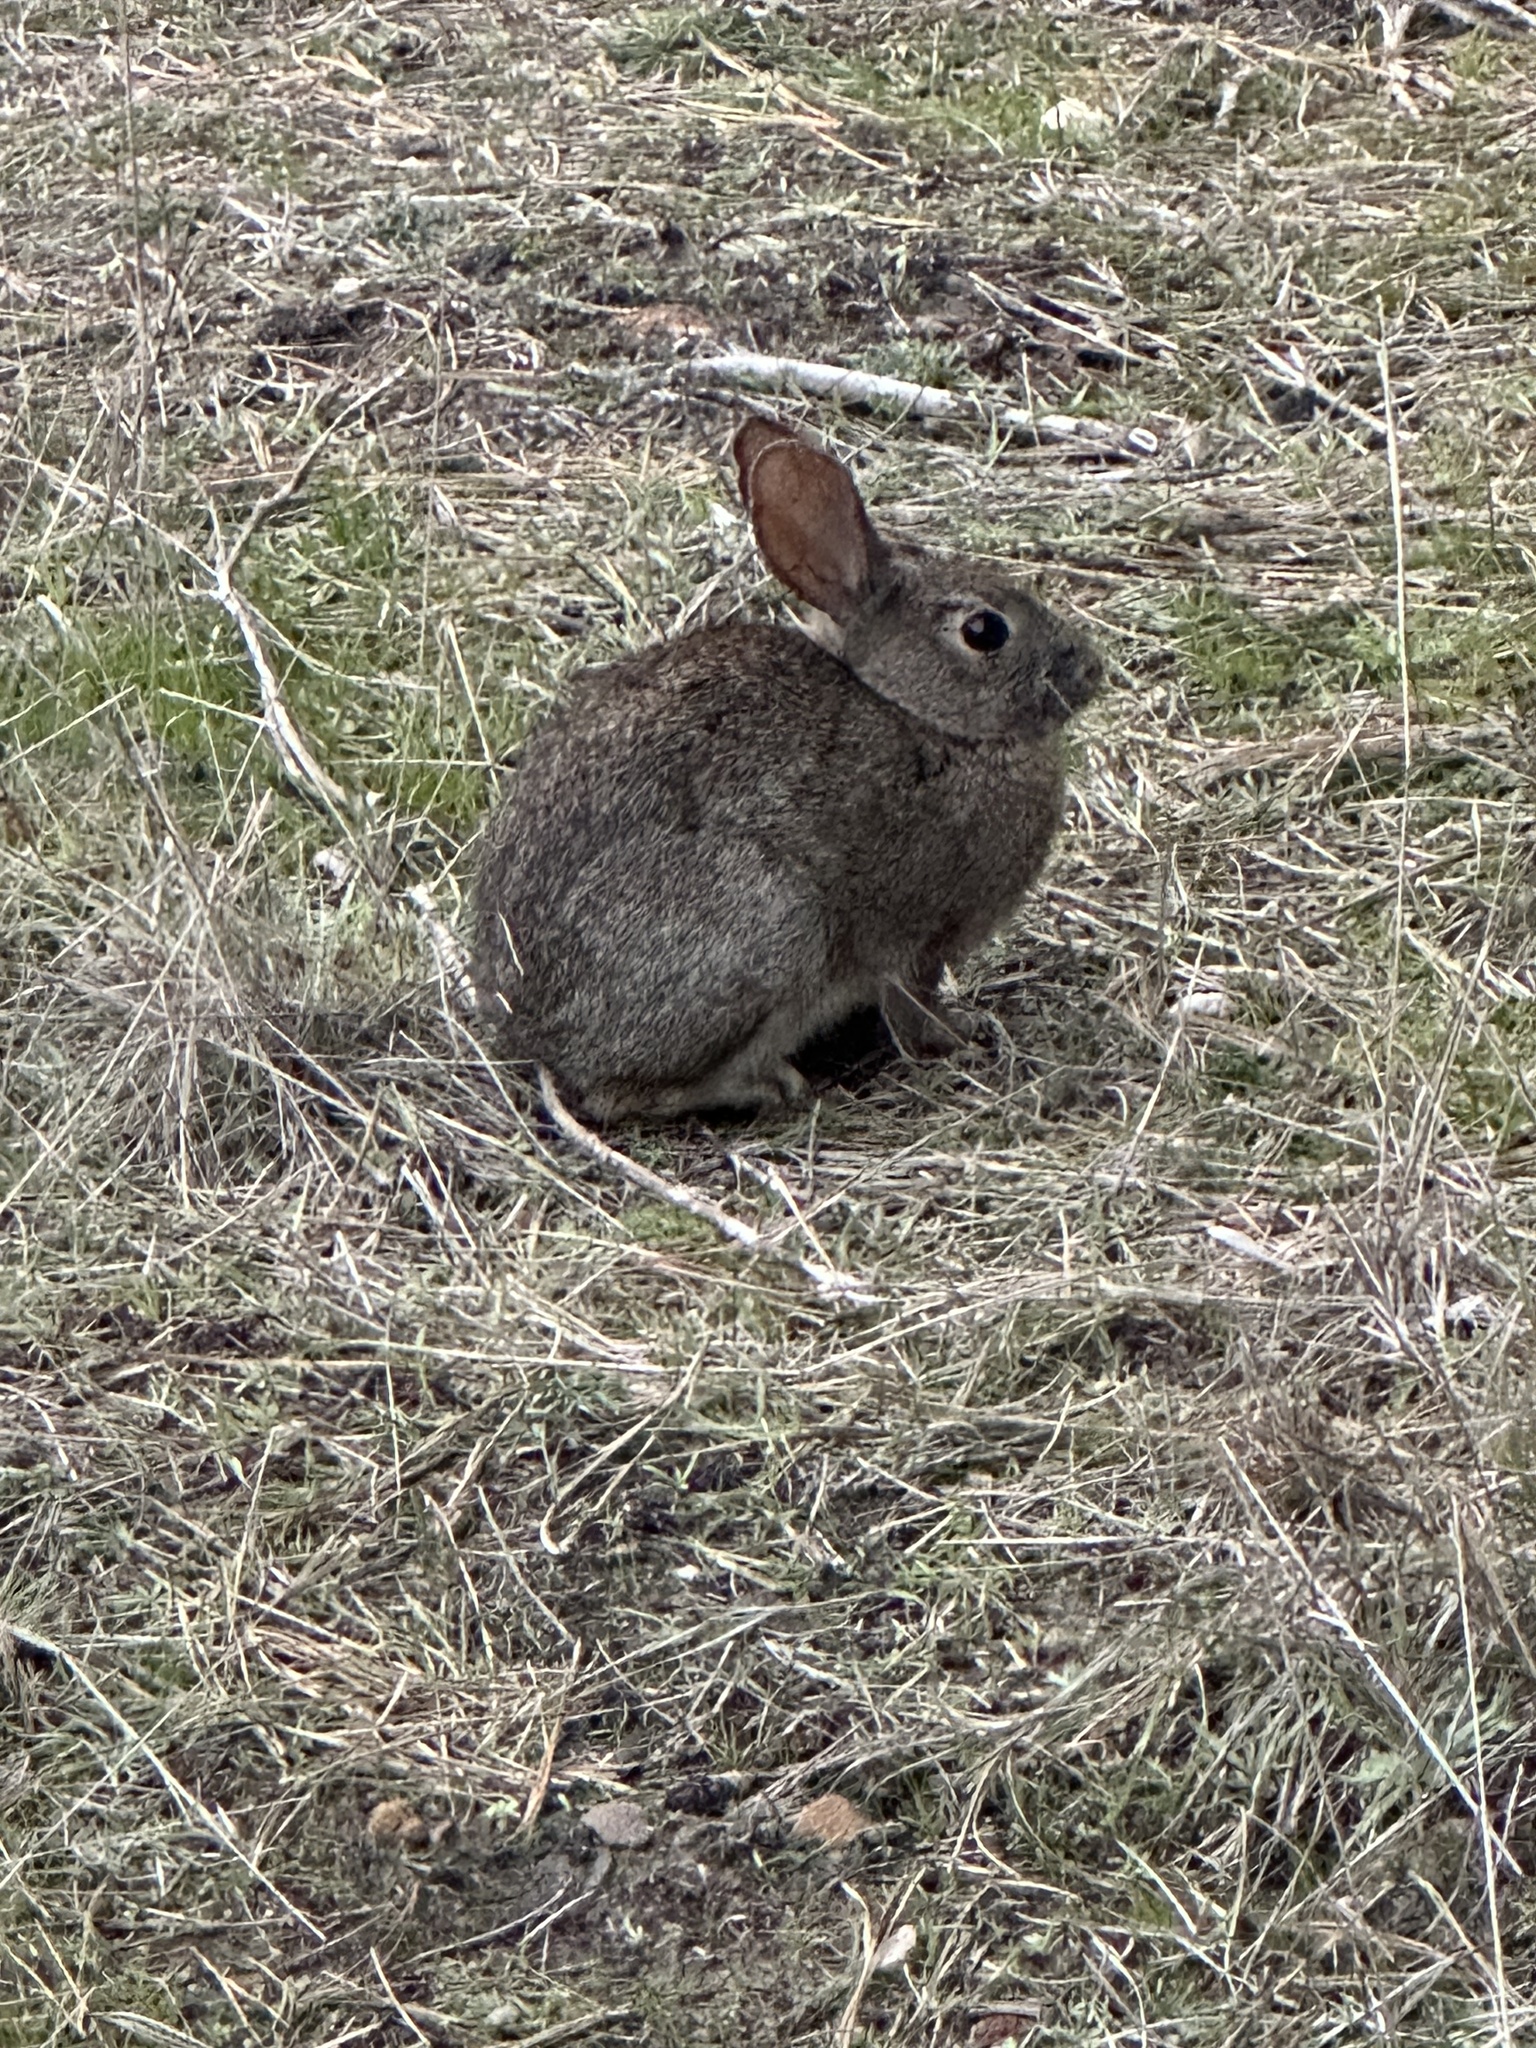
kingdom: Animalia
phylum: Chordata
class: Mammalia
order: Lagomorpha
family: Leporidae
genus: Sylvilagus
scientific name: Sylvilagus bachmani
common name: Brush rabbit
